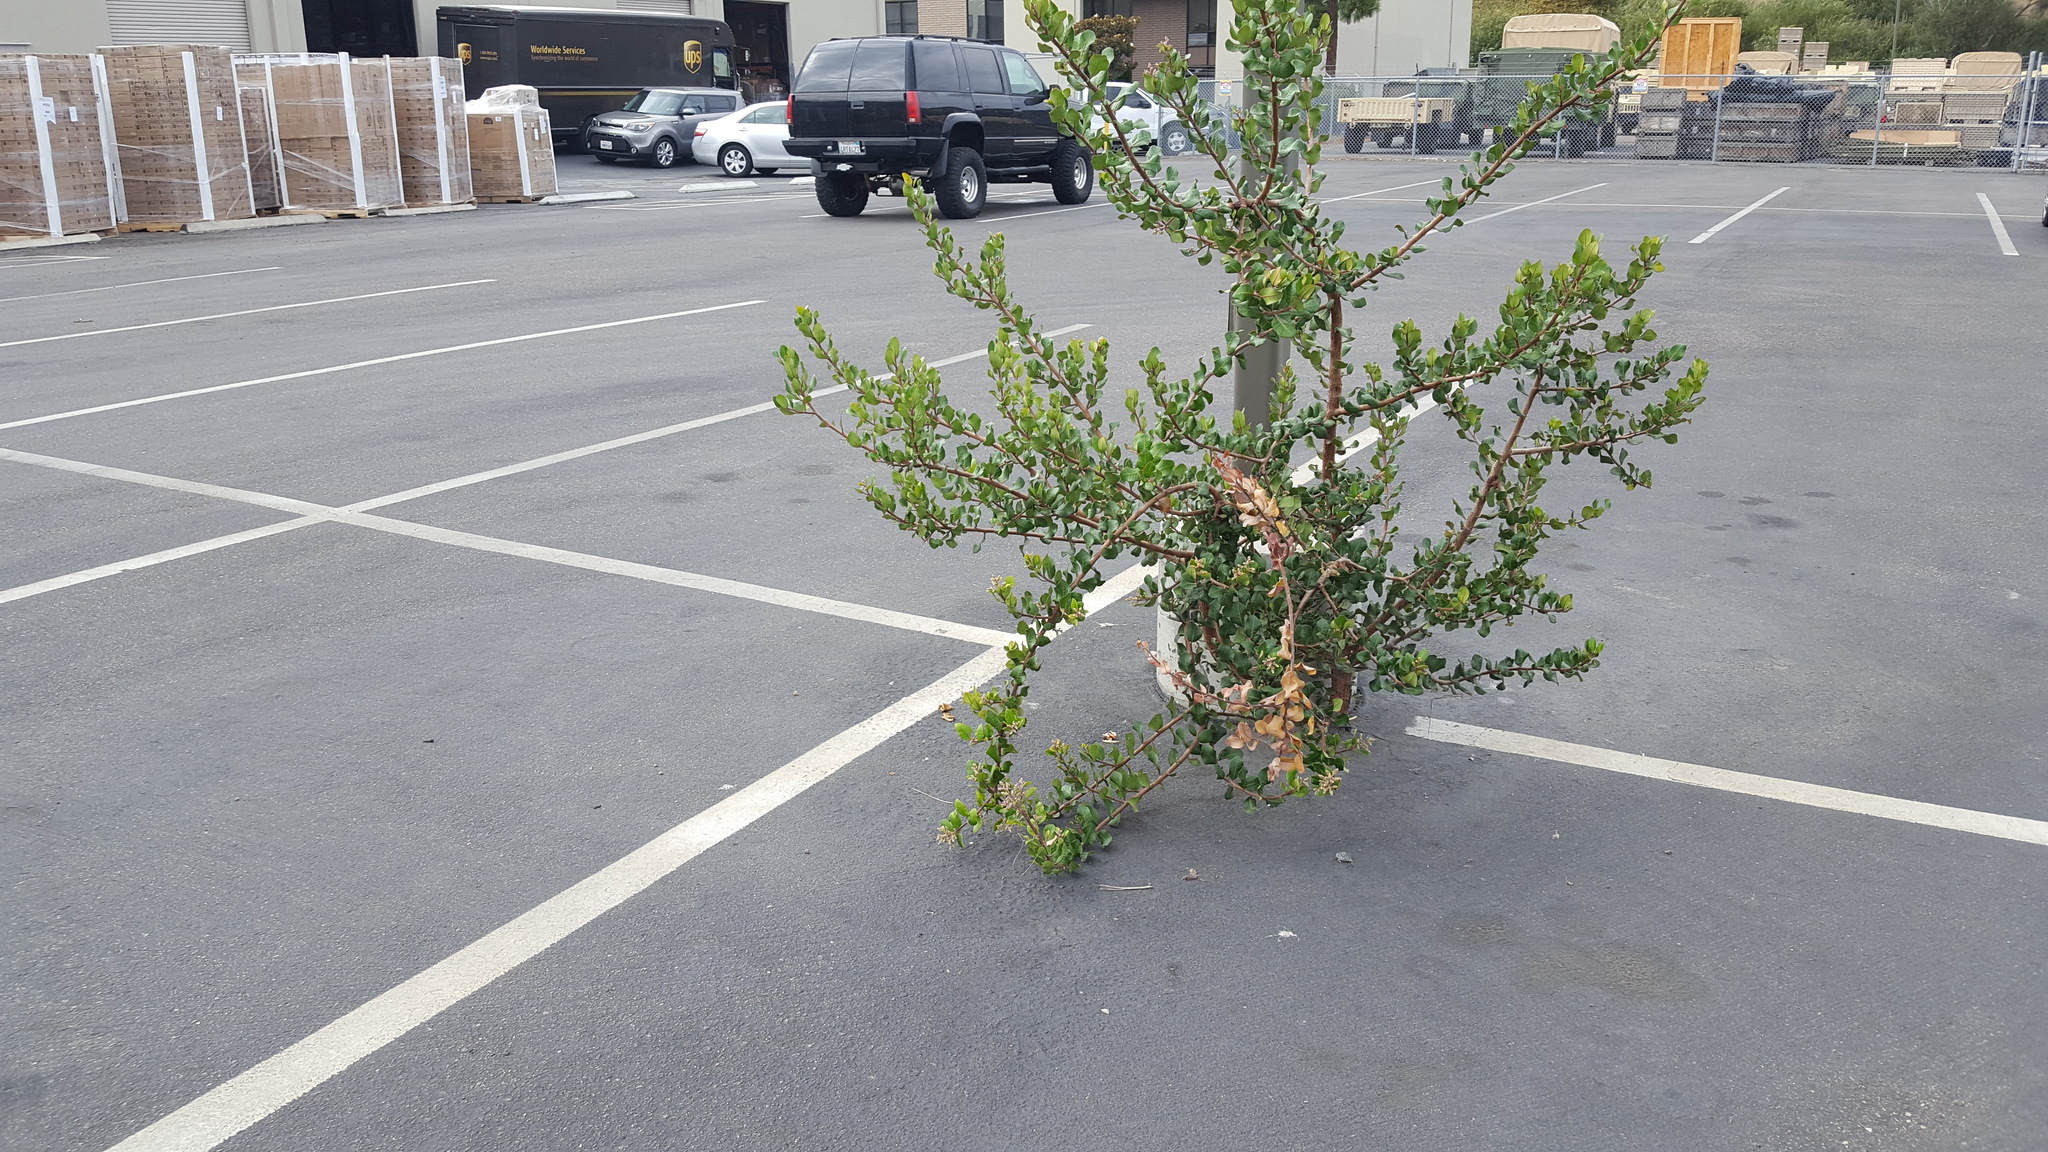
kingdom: Plantae
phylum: Tracheophyta
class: Magnoliopsida
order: Sapindales
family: Anacardiaceae
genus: Rhus
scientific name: Rhus integrifolia
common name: Lemonade sumac
